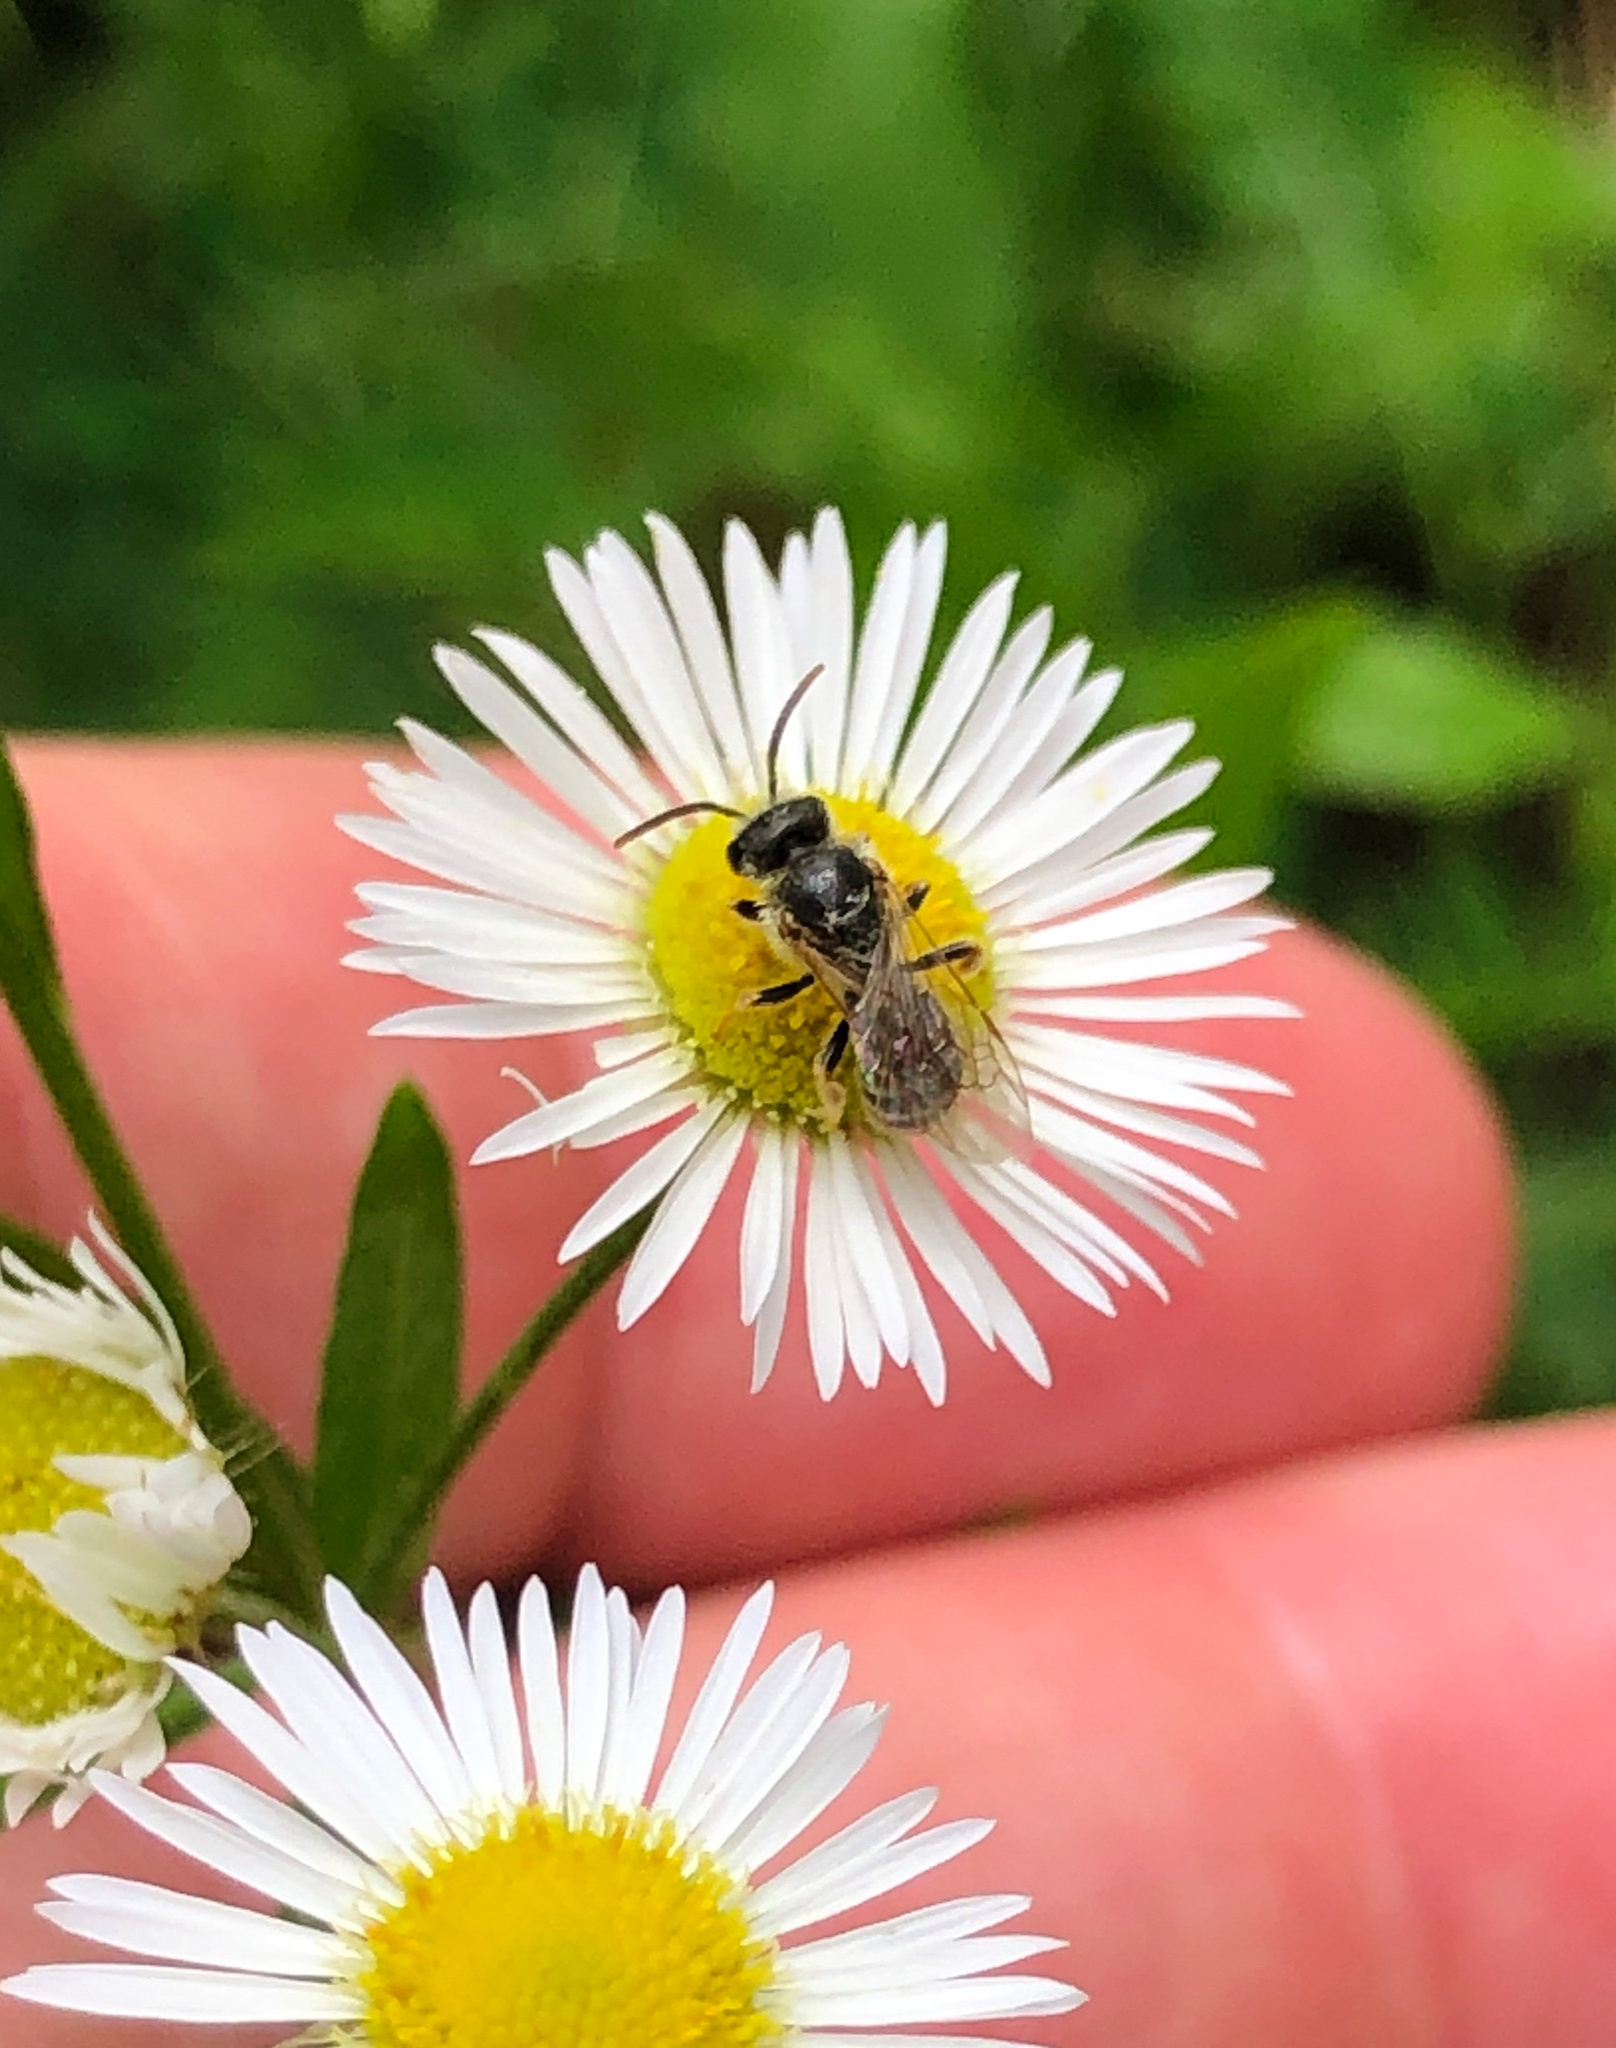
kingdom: Animalia
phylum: Arthropoda
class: Insecta
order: Hymenoptera
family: Halictidae
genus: Halictus
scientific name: Halictus ligatus
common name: Ligated furrow bee
